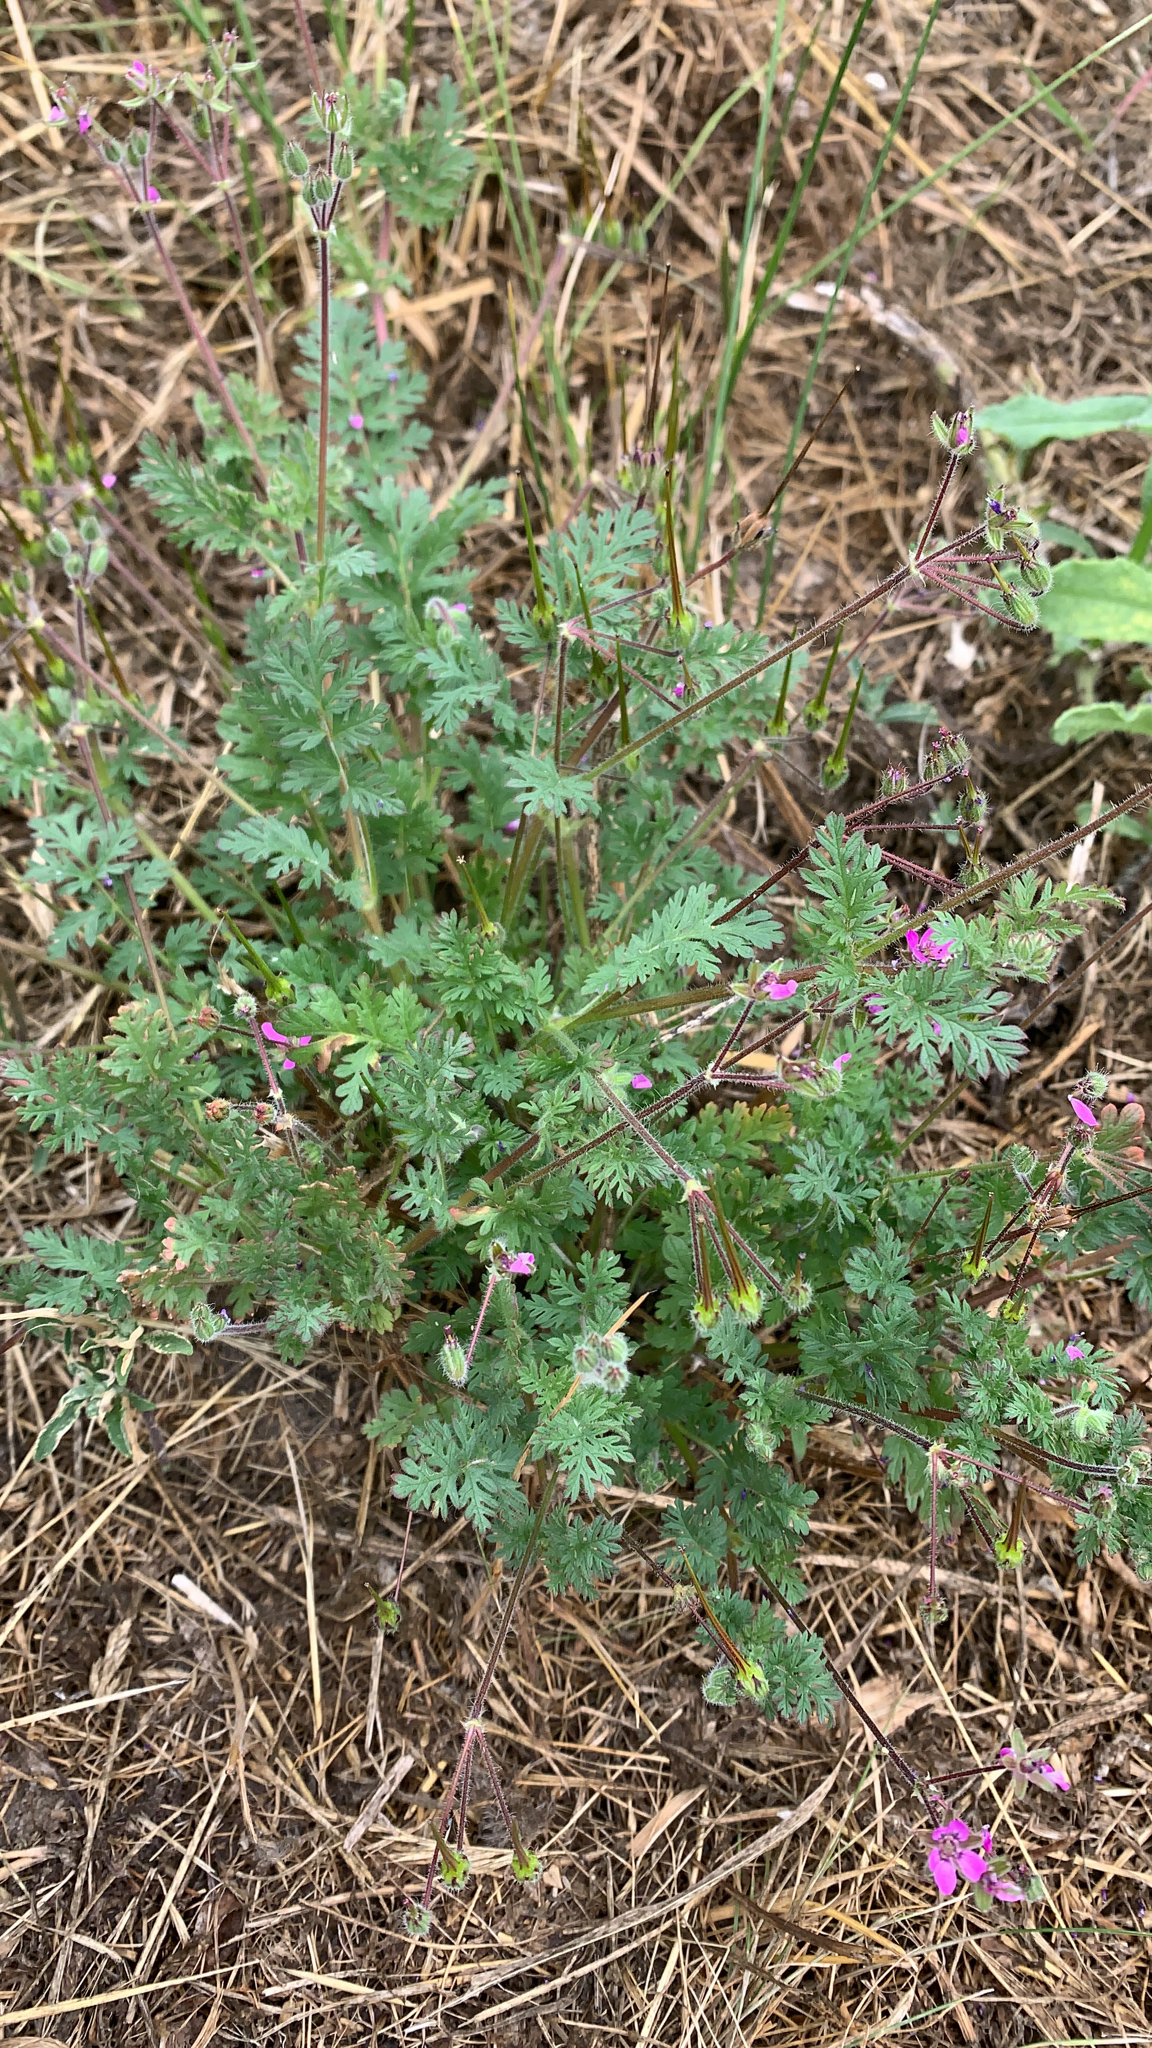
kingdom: Plantae
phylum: Tracheophyta
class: Magnoliopsida
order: Geraniales
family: Geraniaceae
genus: Erodium
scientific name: Erodium cicutarium
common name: Common stork's-bill
